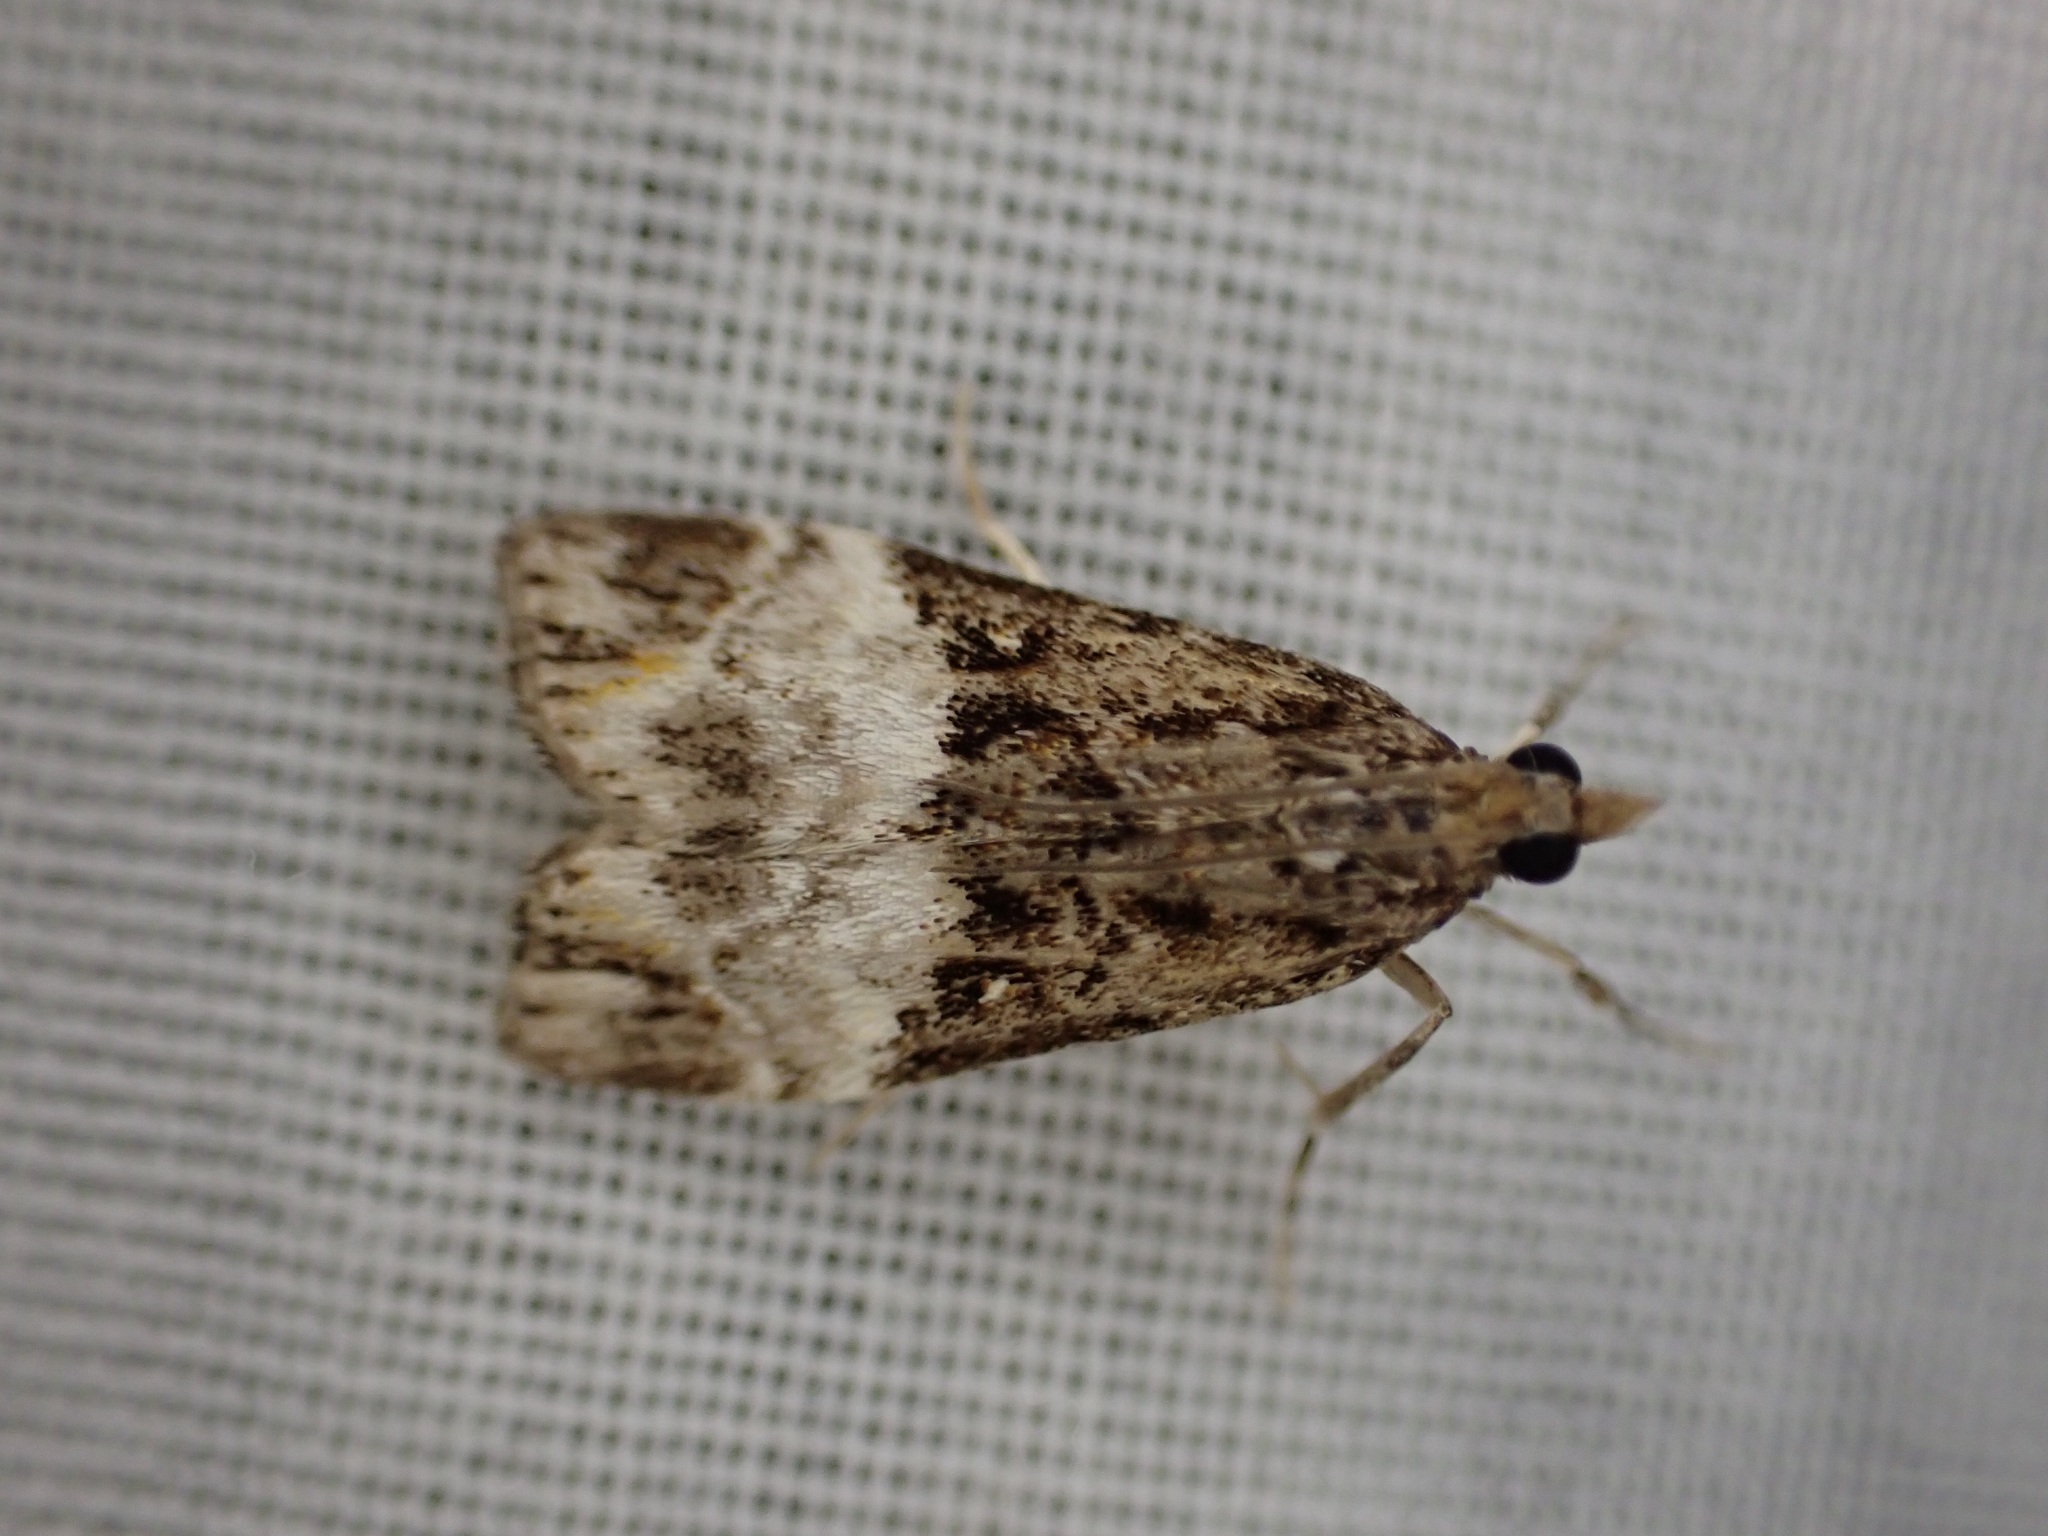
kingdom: Animalia
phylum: Arthropoda
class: Insecta
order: Lepidoptera
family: Crambidae
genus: Scoparia
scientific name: Scoparia minusculalis
